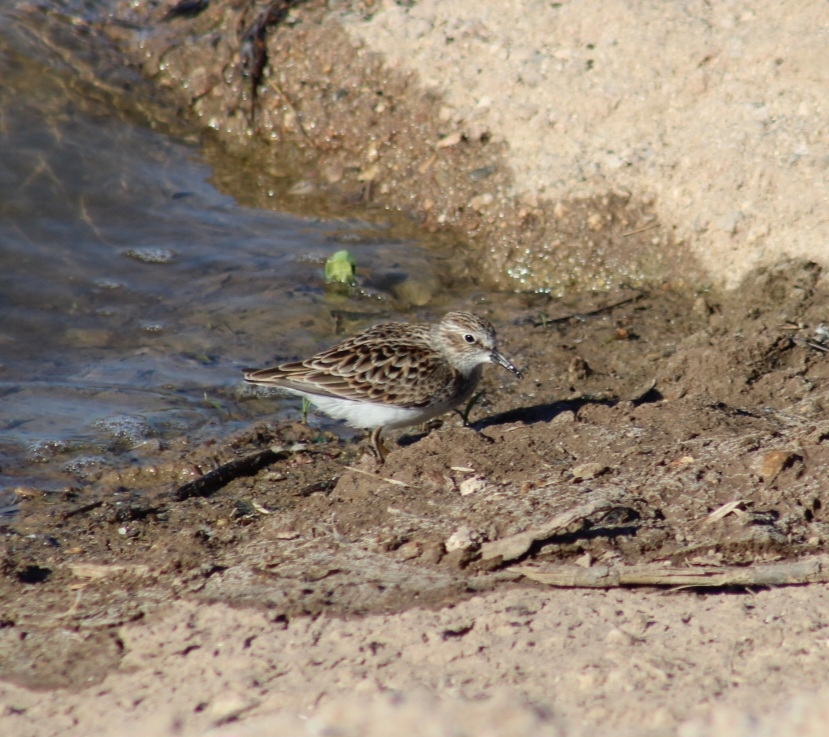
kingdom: Animalia
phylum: Chordata
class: Aves
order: Charadriiformes
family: Scolopacidae
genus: Calidris
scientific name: Calidris minutilla
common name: Least sandpiper
